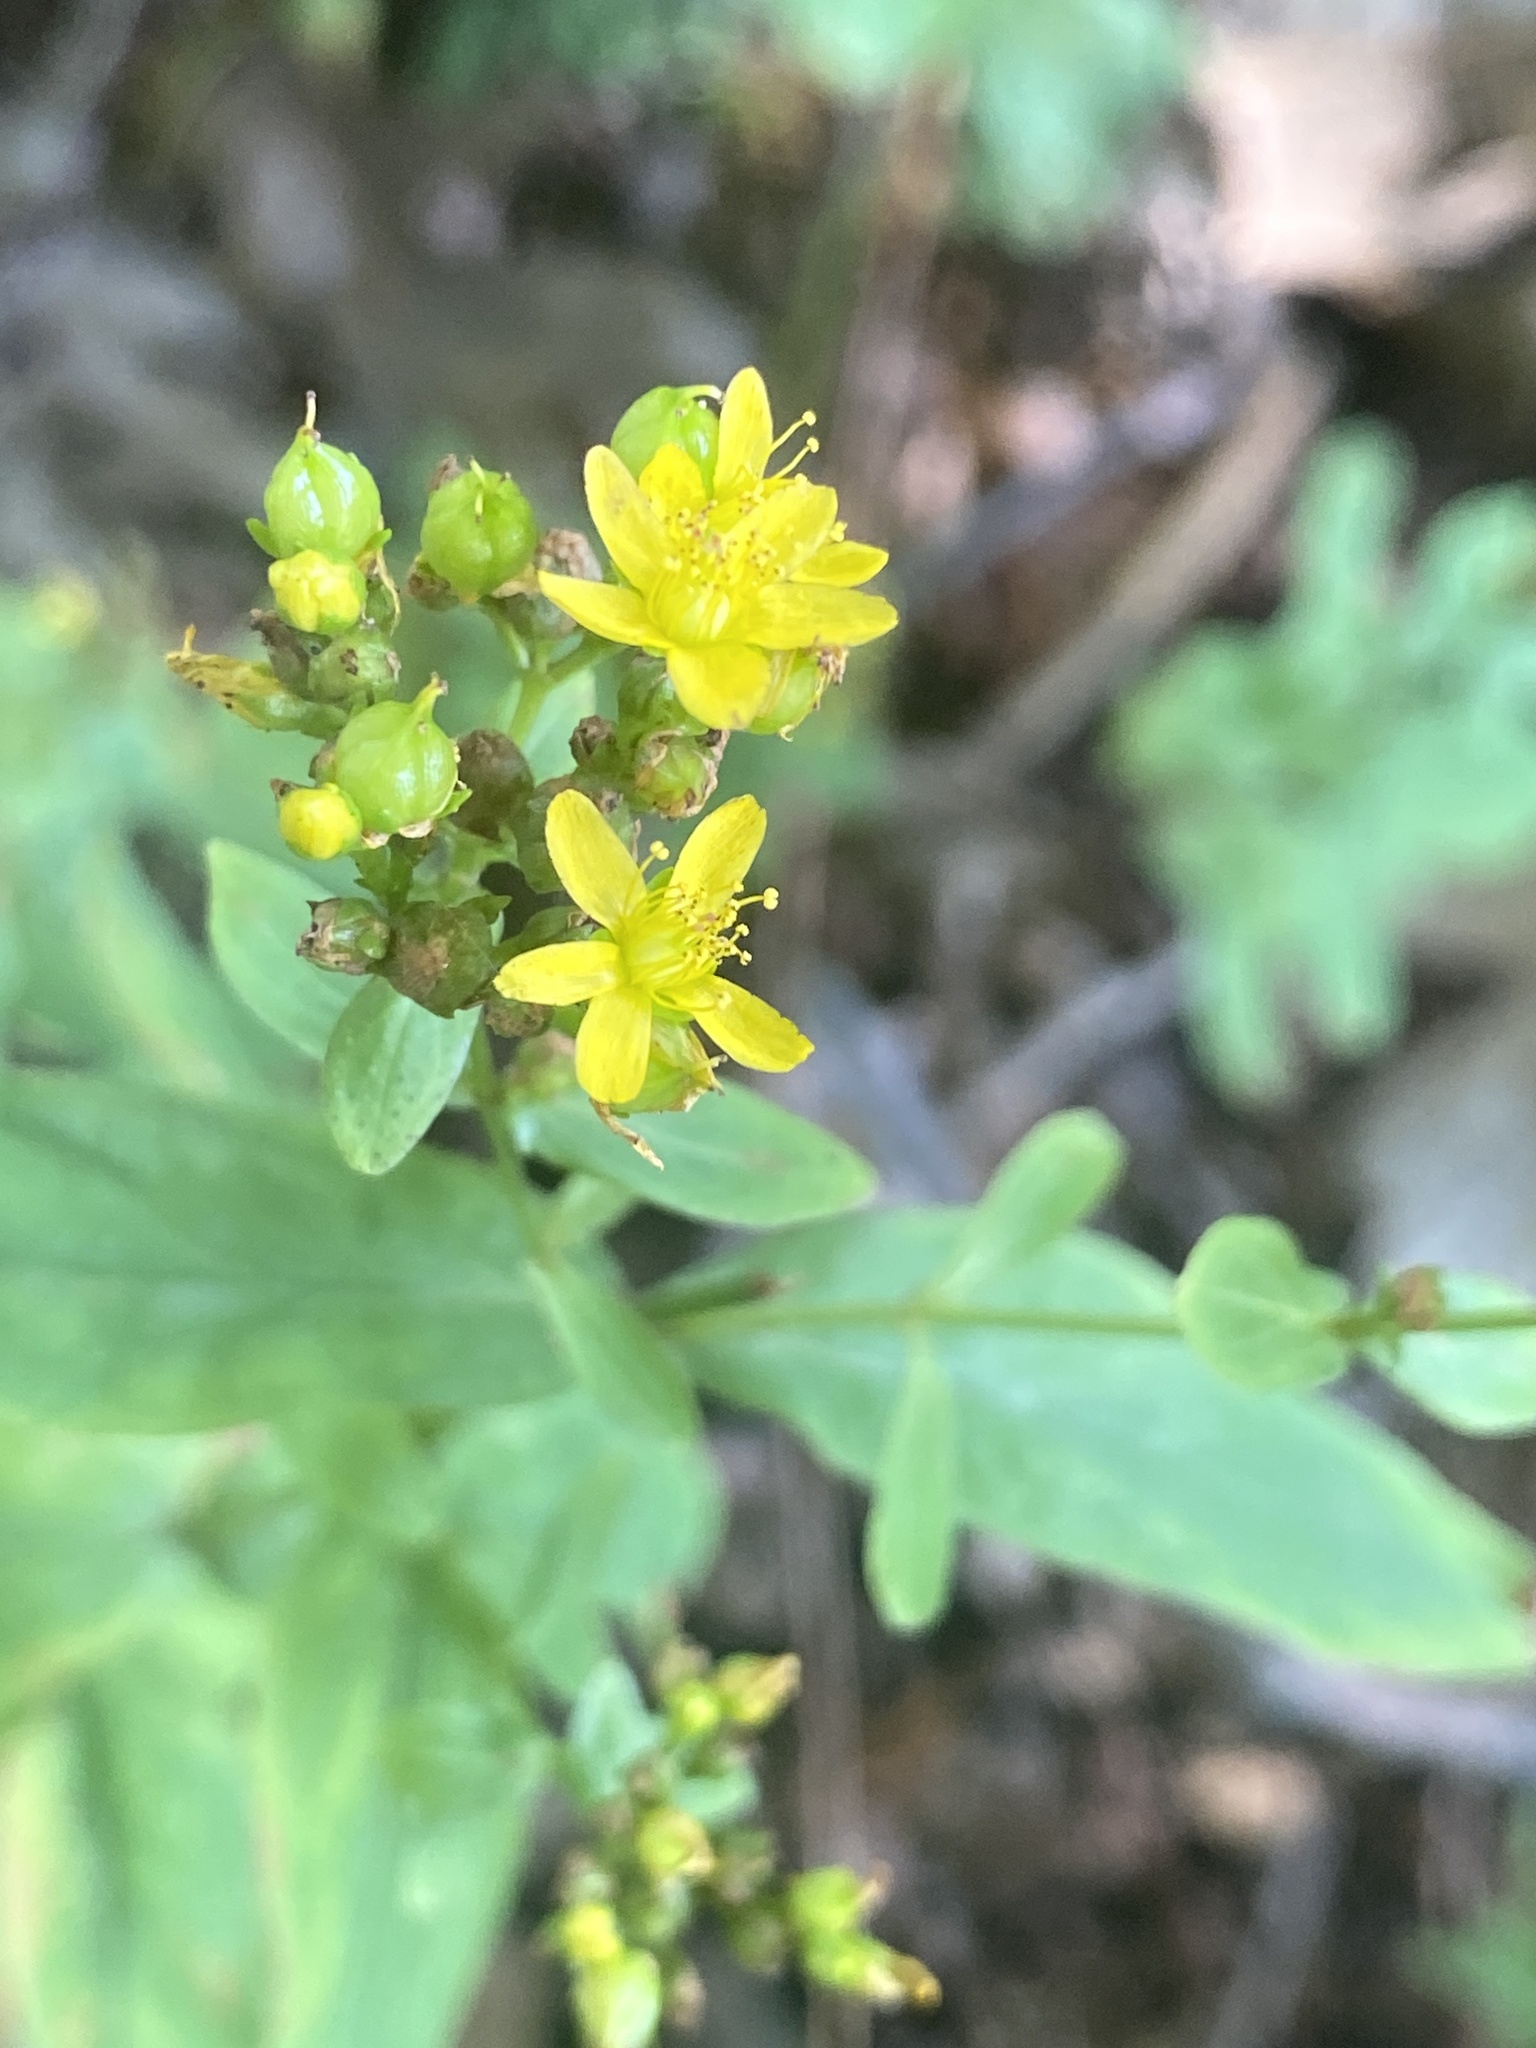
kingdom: Plantae
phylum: Tracheophyta
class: Magnoliopsida
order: Malpighiales
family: Hypericaceae
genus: Hypericum
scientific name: Hypericum punctatum
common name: Spotted st. john's-wort
